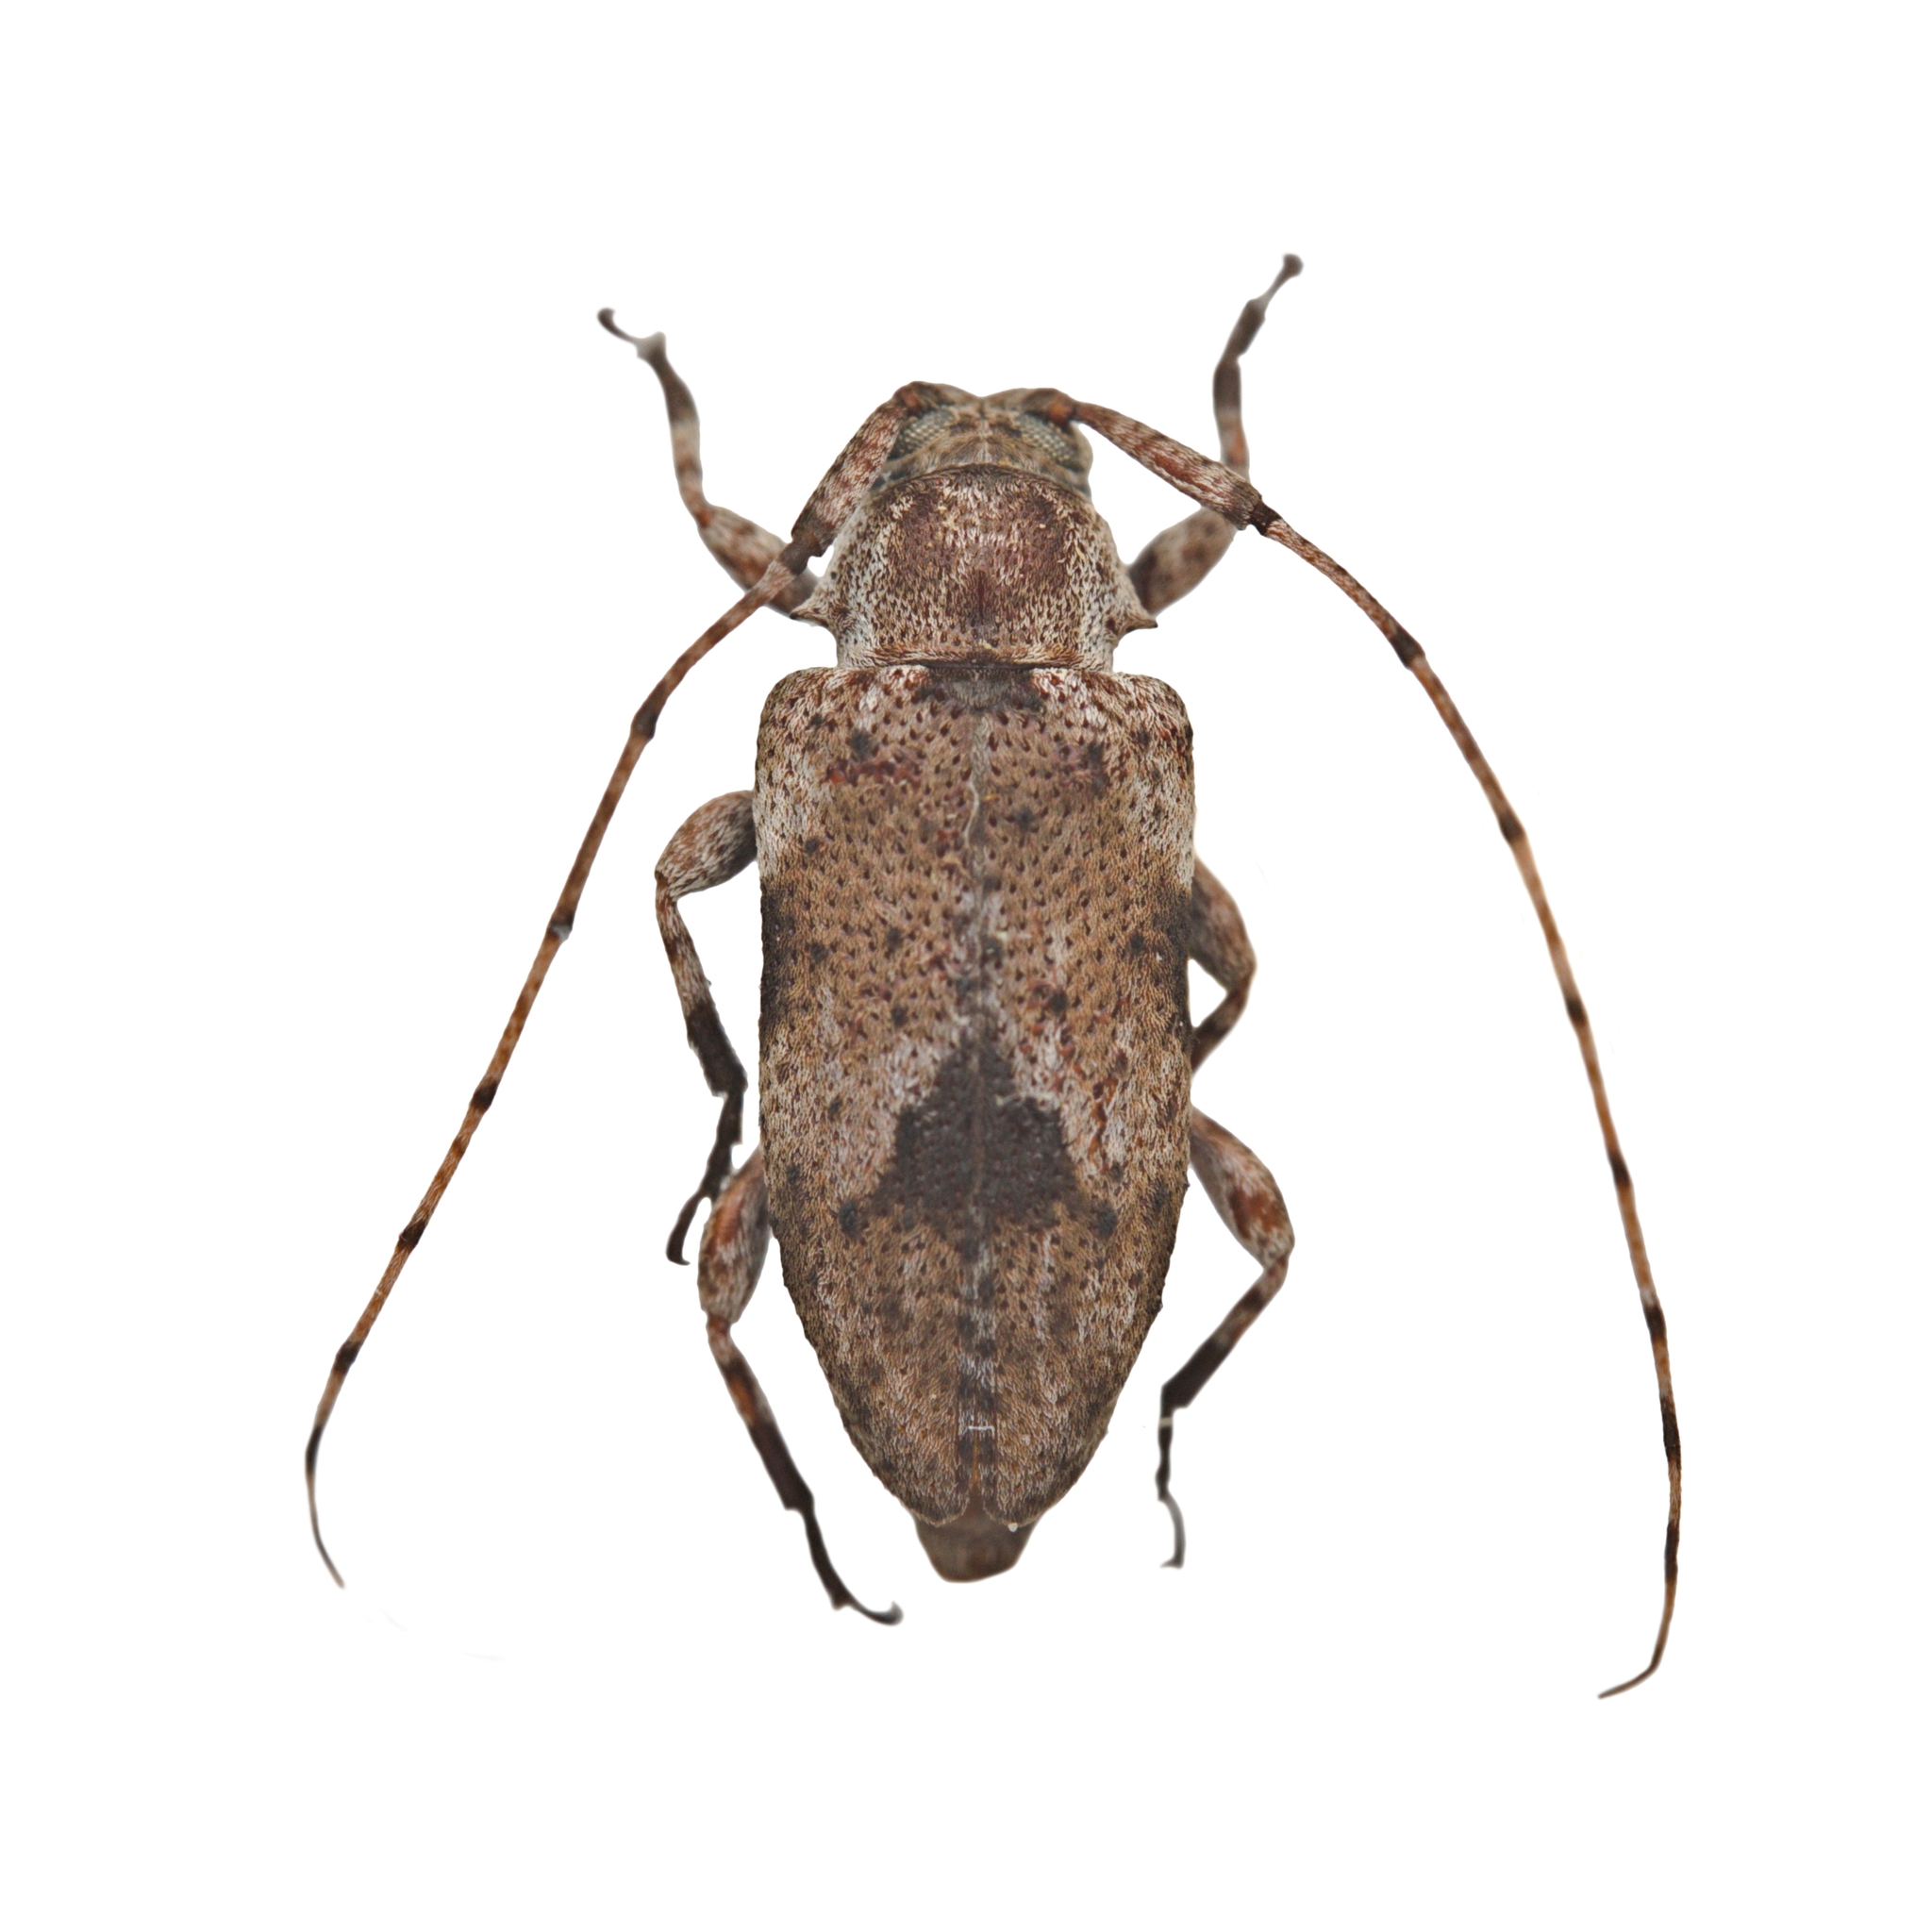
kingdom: Animalia
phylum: Arthropoda
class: Insecta
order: Coleoptera
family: Cerambycidae
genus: Sternidius
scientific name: Sternidius centralis
